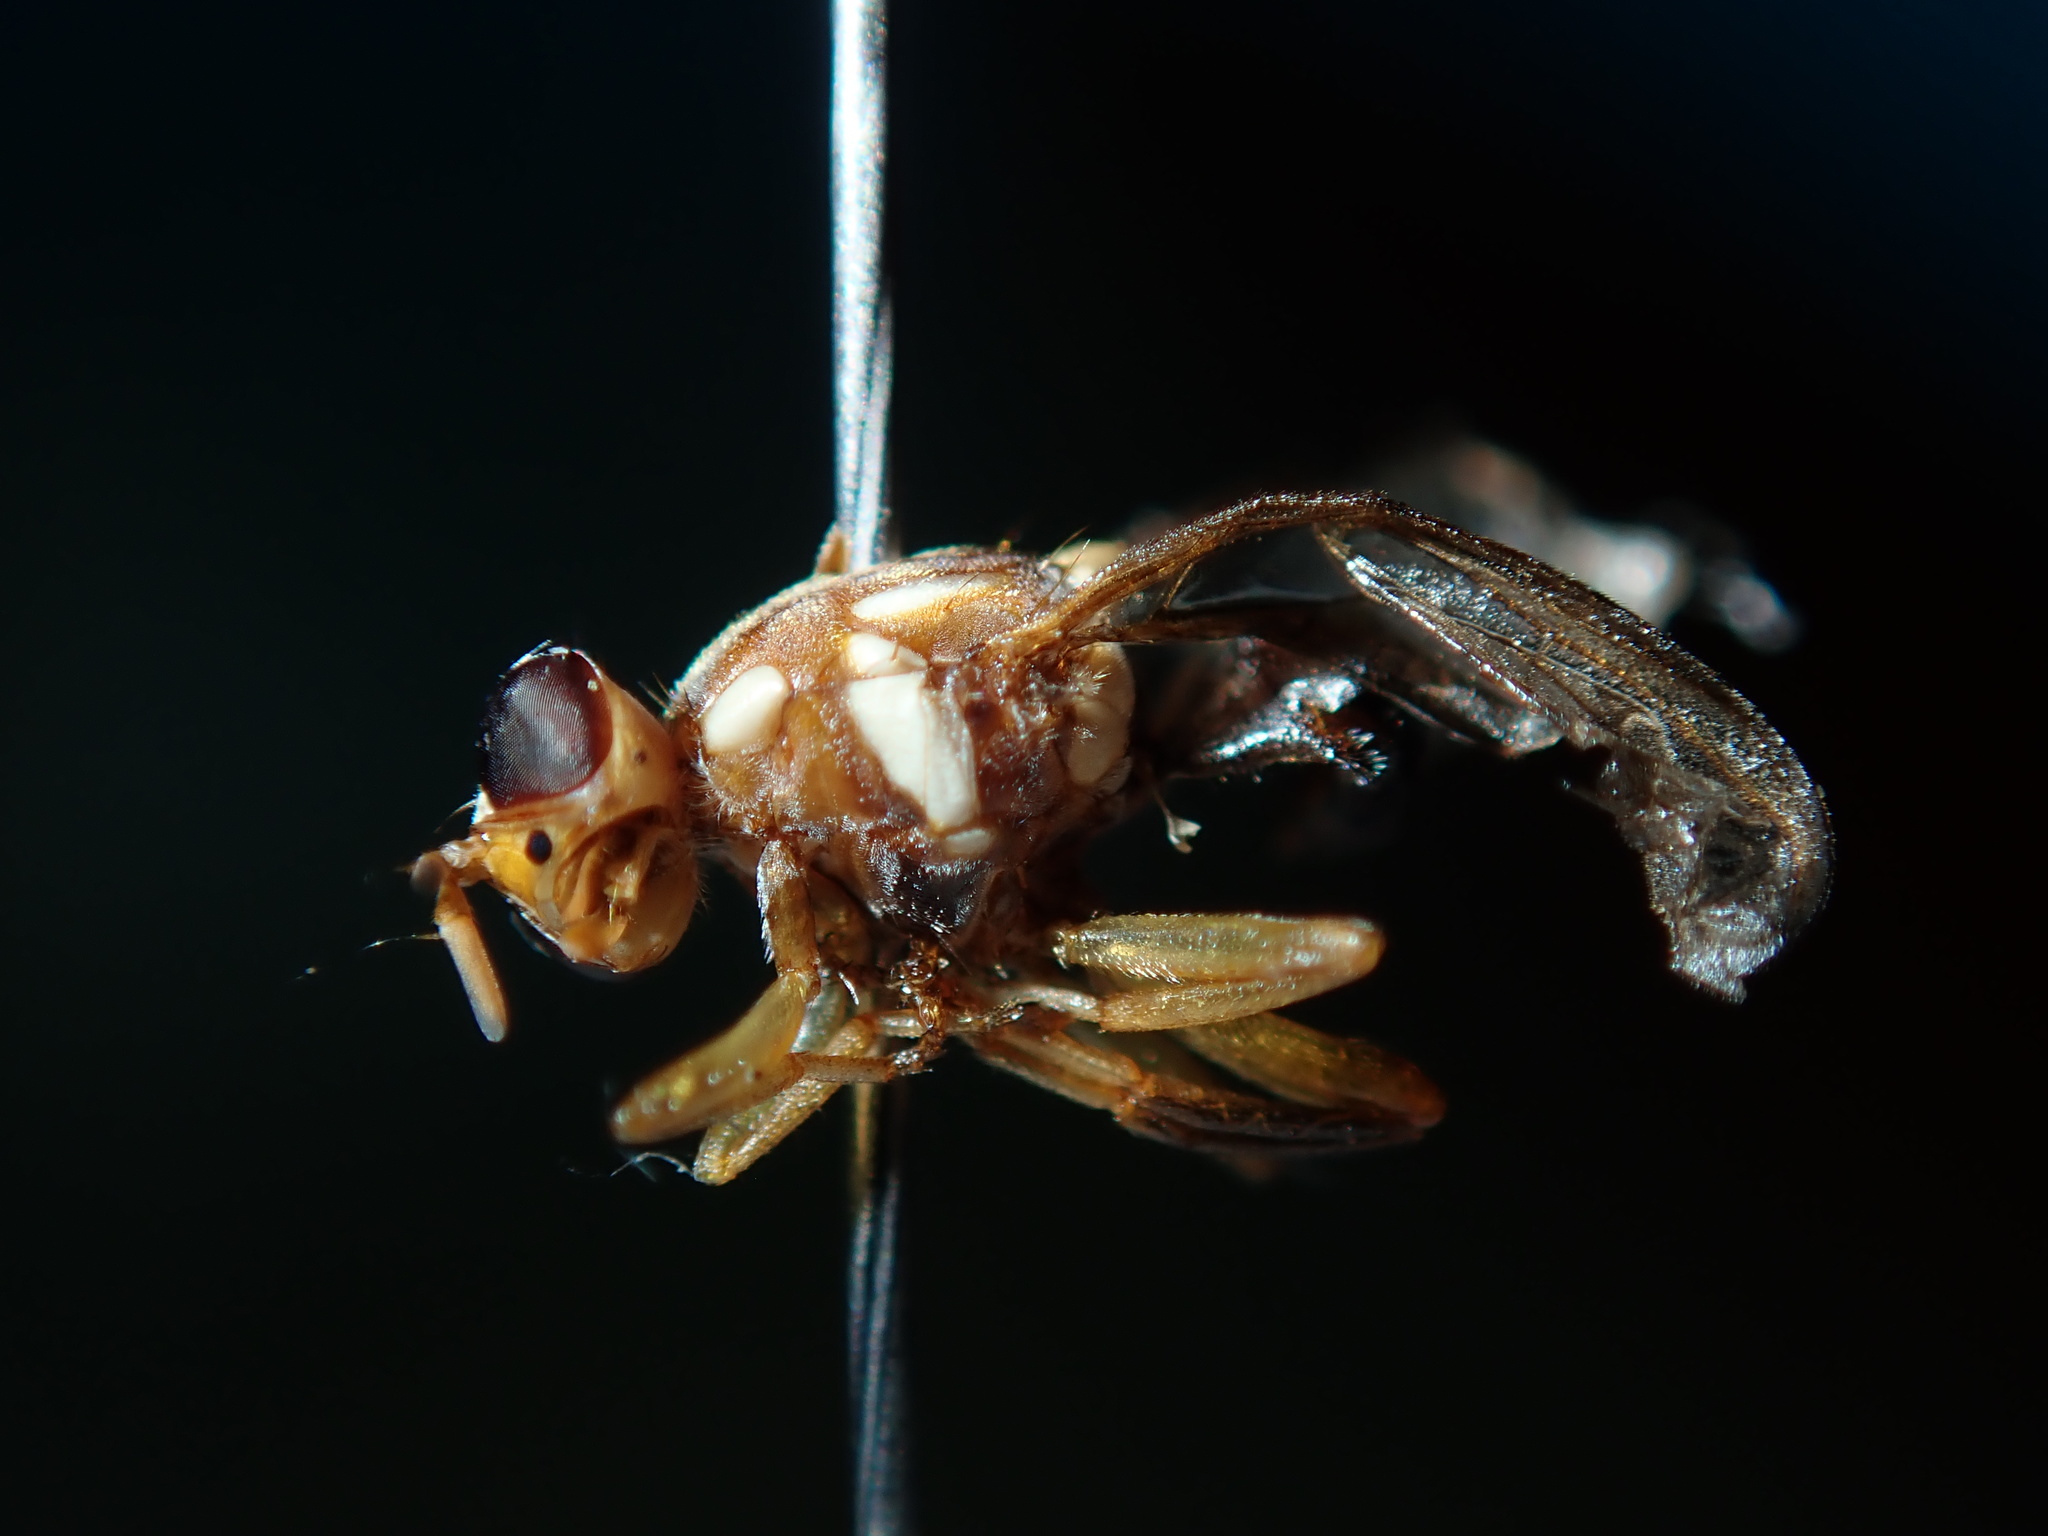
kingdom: Animalia
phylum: Arthropoda
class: Insecta
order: Diptera
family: Tephritidae
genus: Bactrocera
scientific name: Bactrocera tryoni
